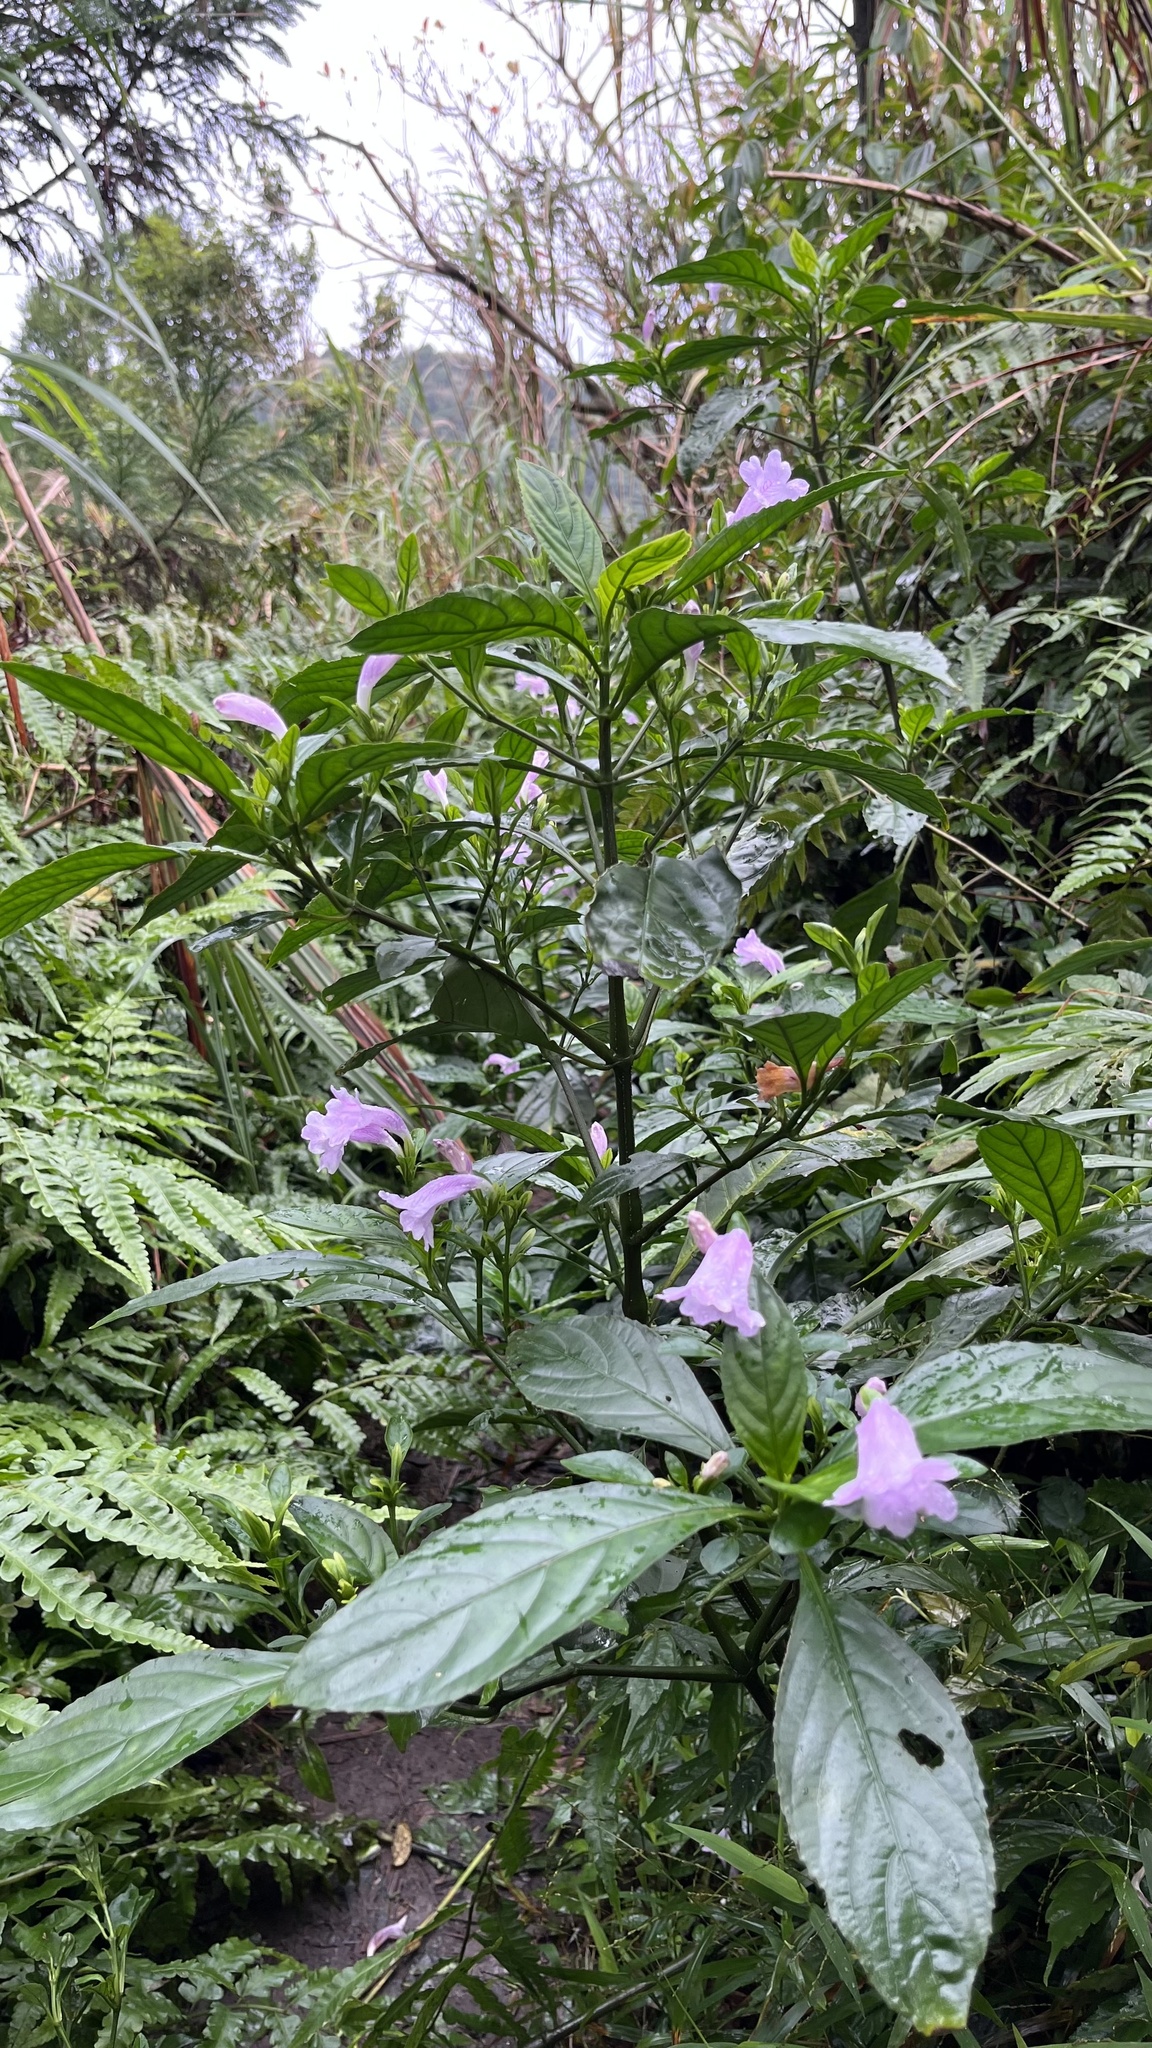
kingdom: Plantae
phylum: Tracheophyta
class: Magnoliopsida
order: Lamiales
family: Acanthaceae
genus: Strobilanthes
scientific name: Strobilanthes cusia
